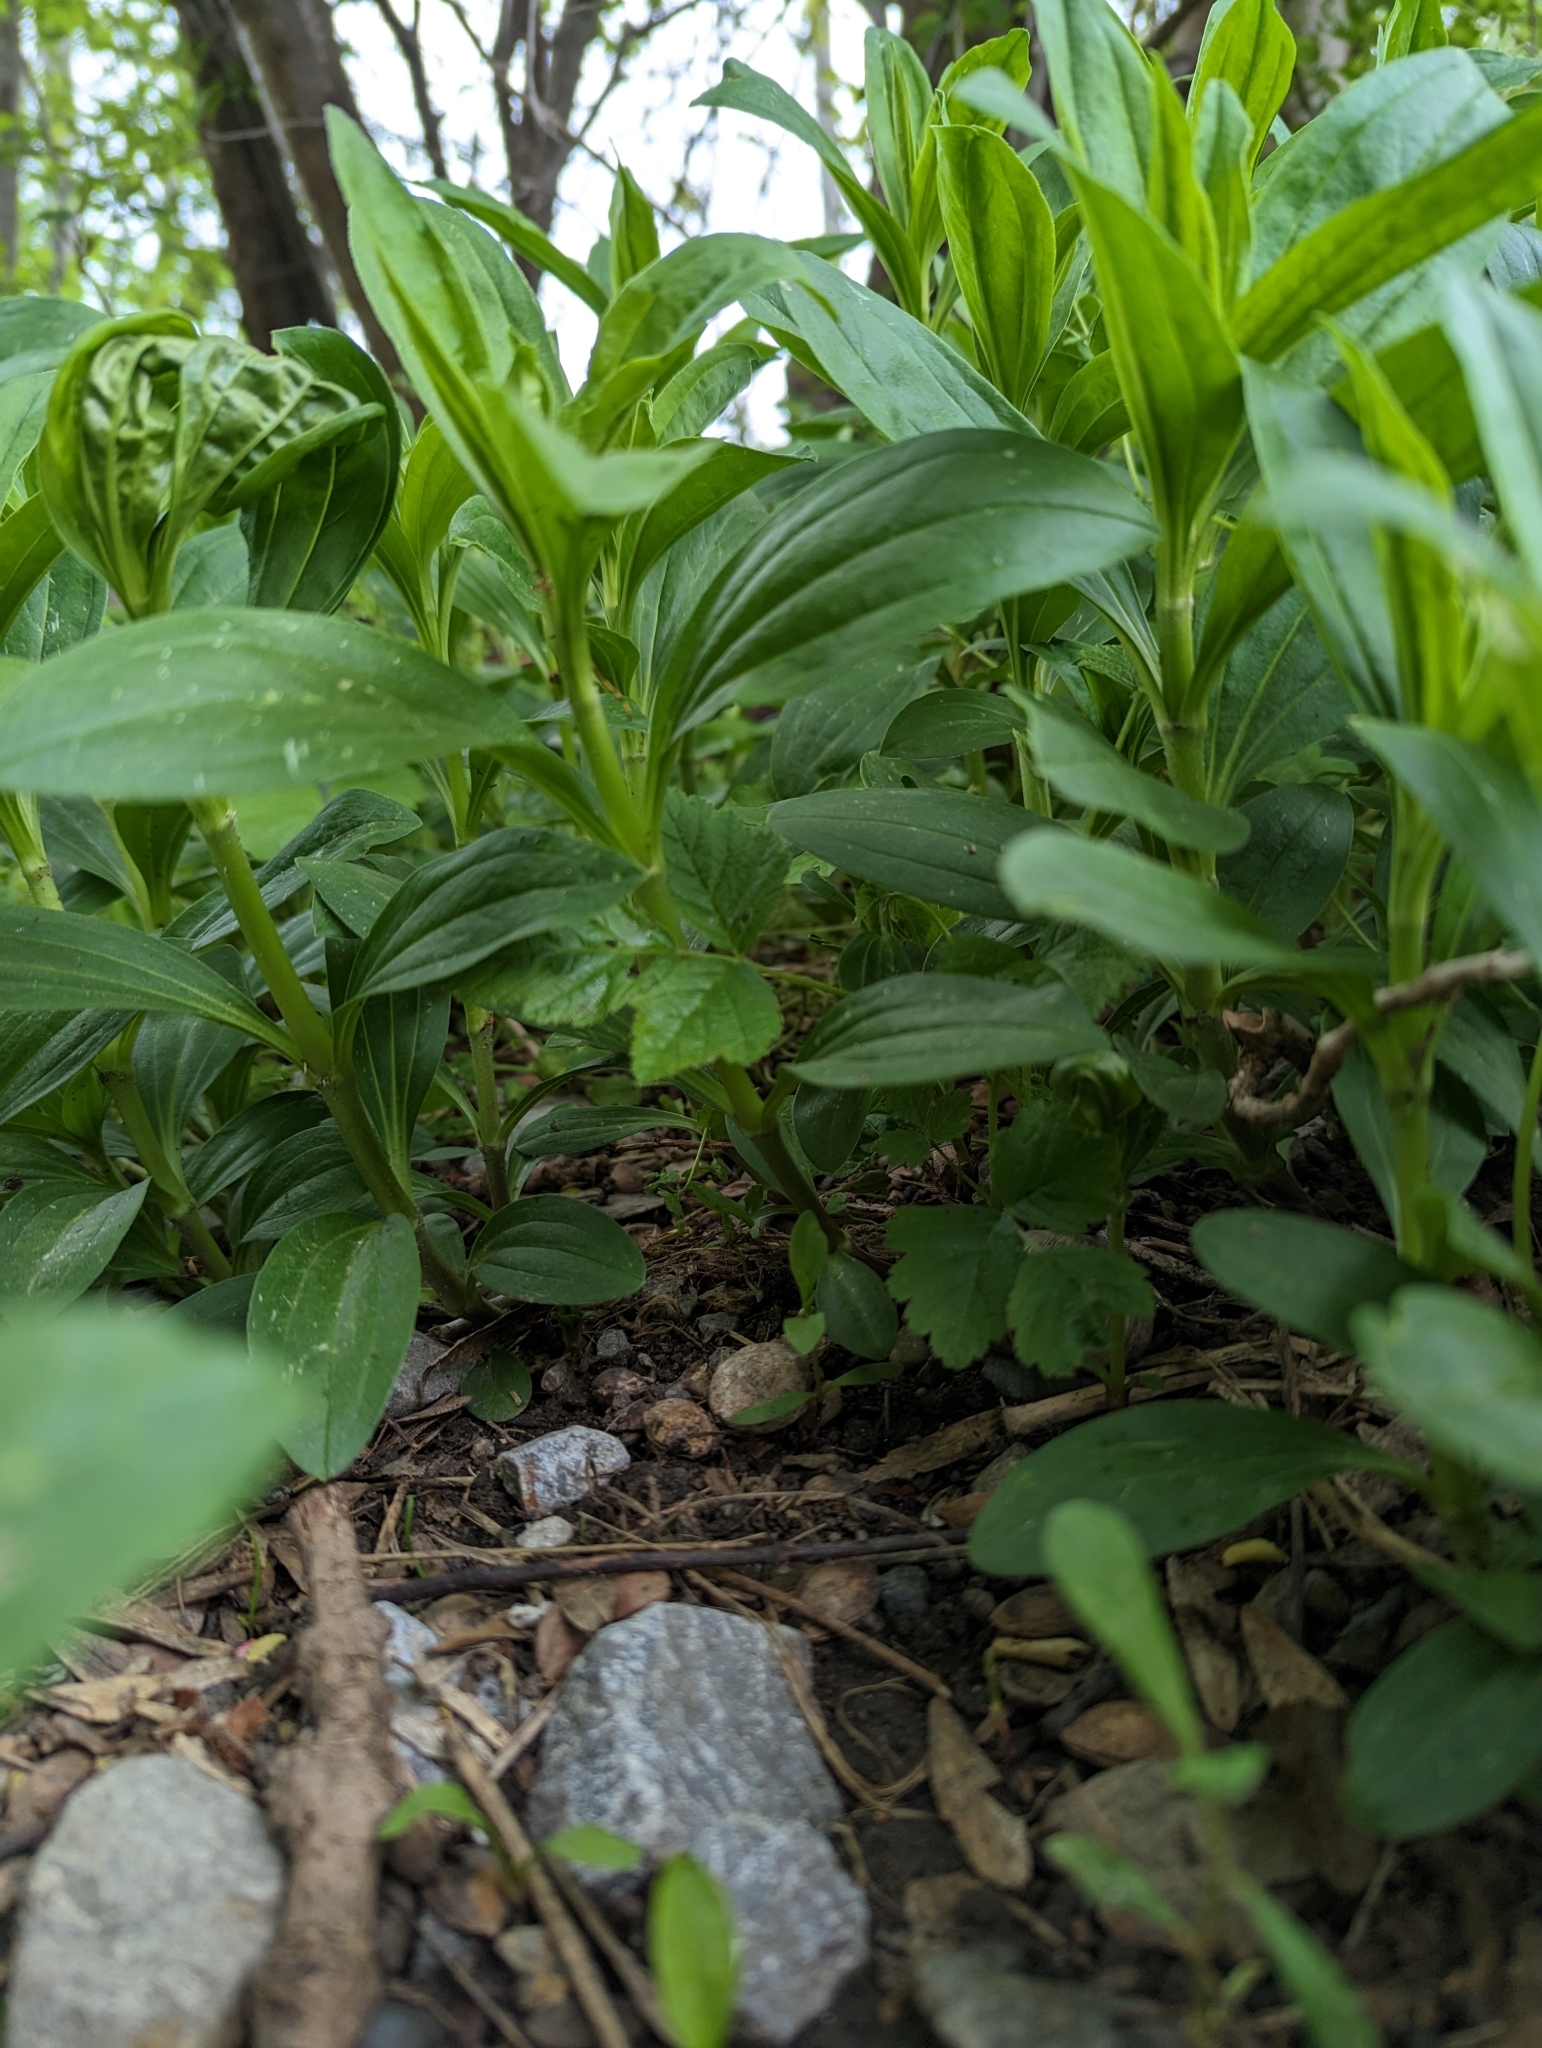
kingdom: Plantae
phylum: Tracheophyta
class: Magnoliopsida
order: Caryophyllales
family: Caryophyllaceae
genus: Saponaria
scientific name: Saponaria officinalis
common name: Soapwort
